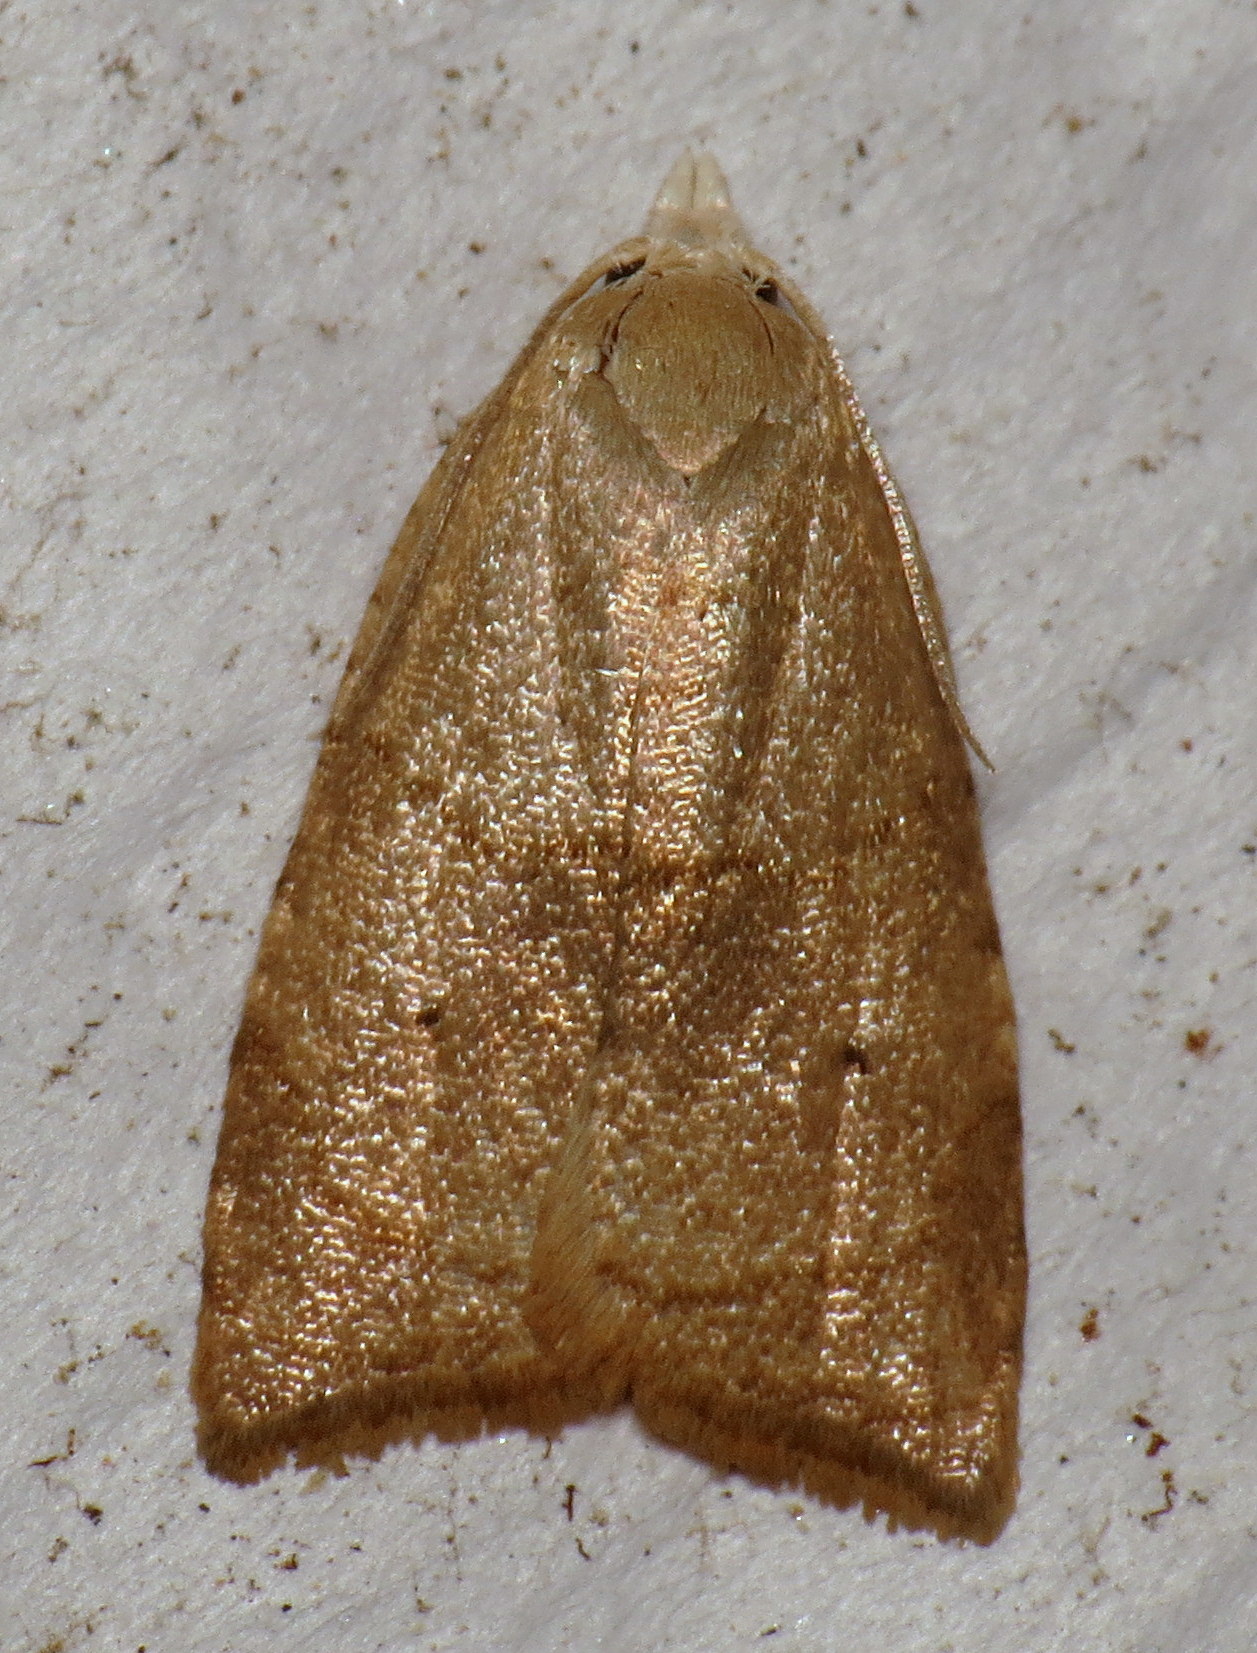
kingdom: Animalia
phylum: Arthropoda
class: Insecta
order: Lepidoptera
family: Tortricidae
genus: Coelostathma
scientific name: Coelostathma discopunctana
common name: Batman moth
